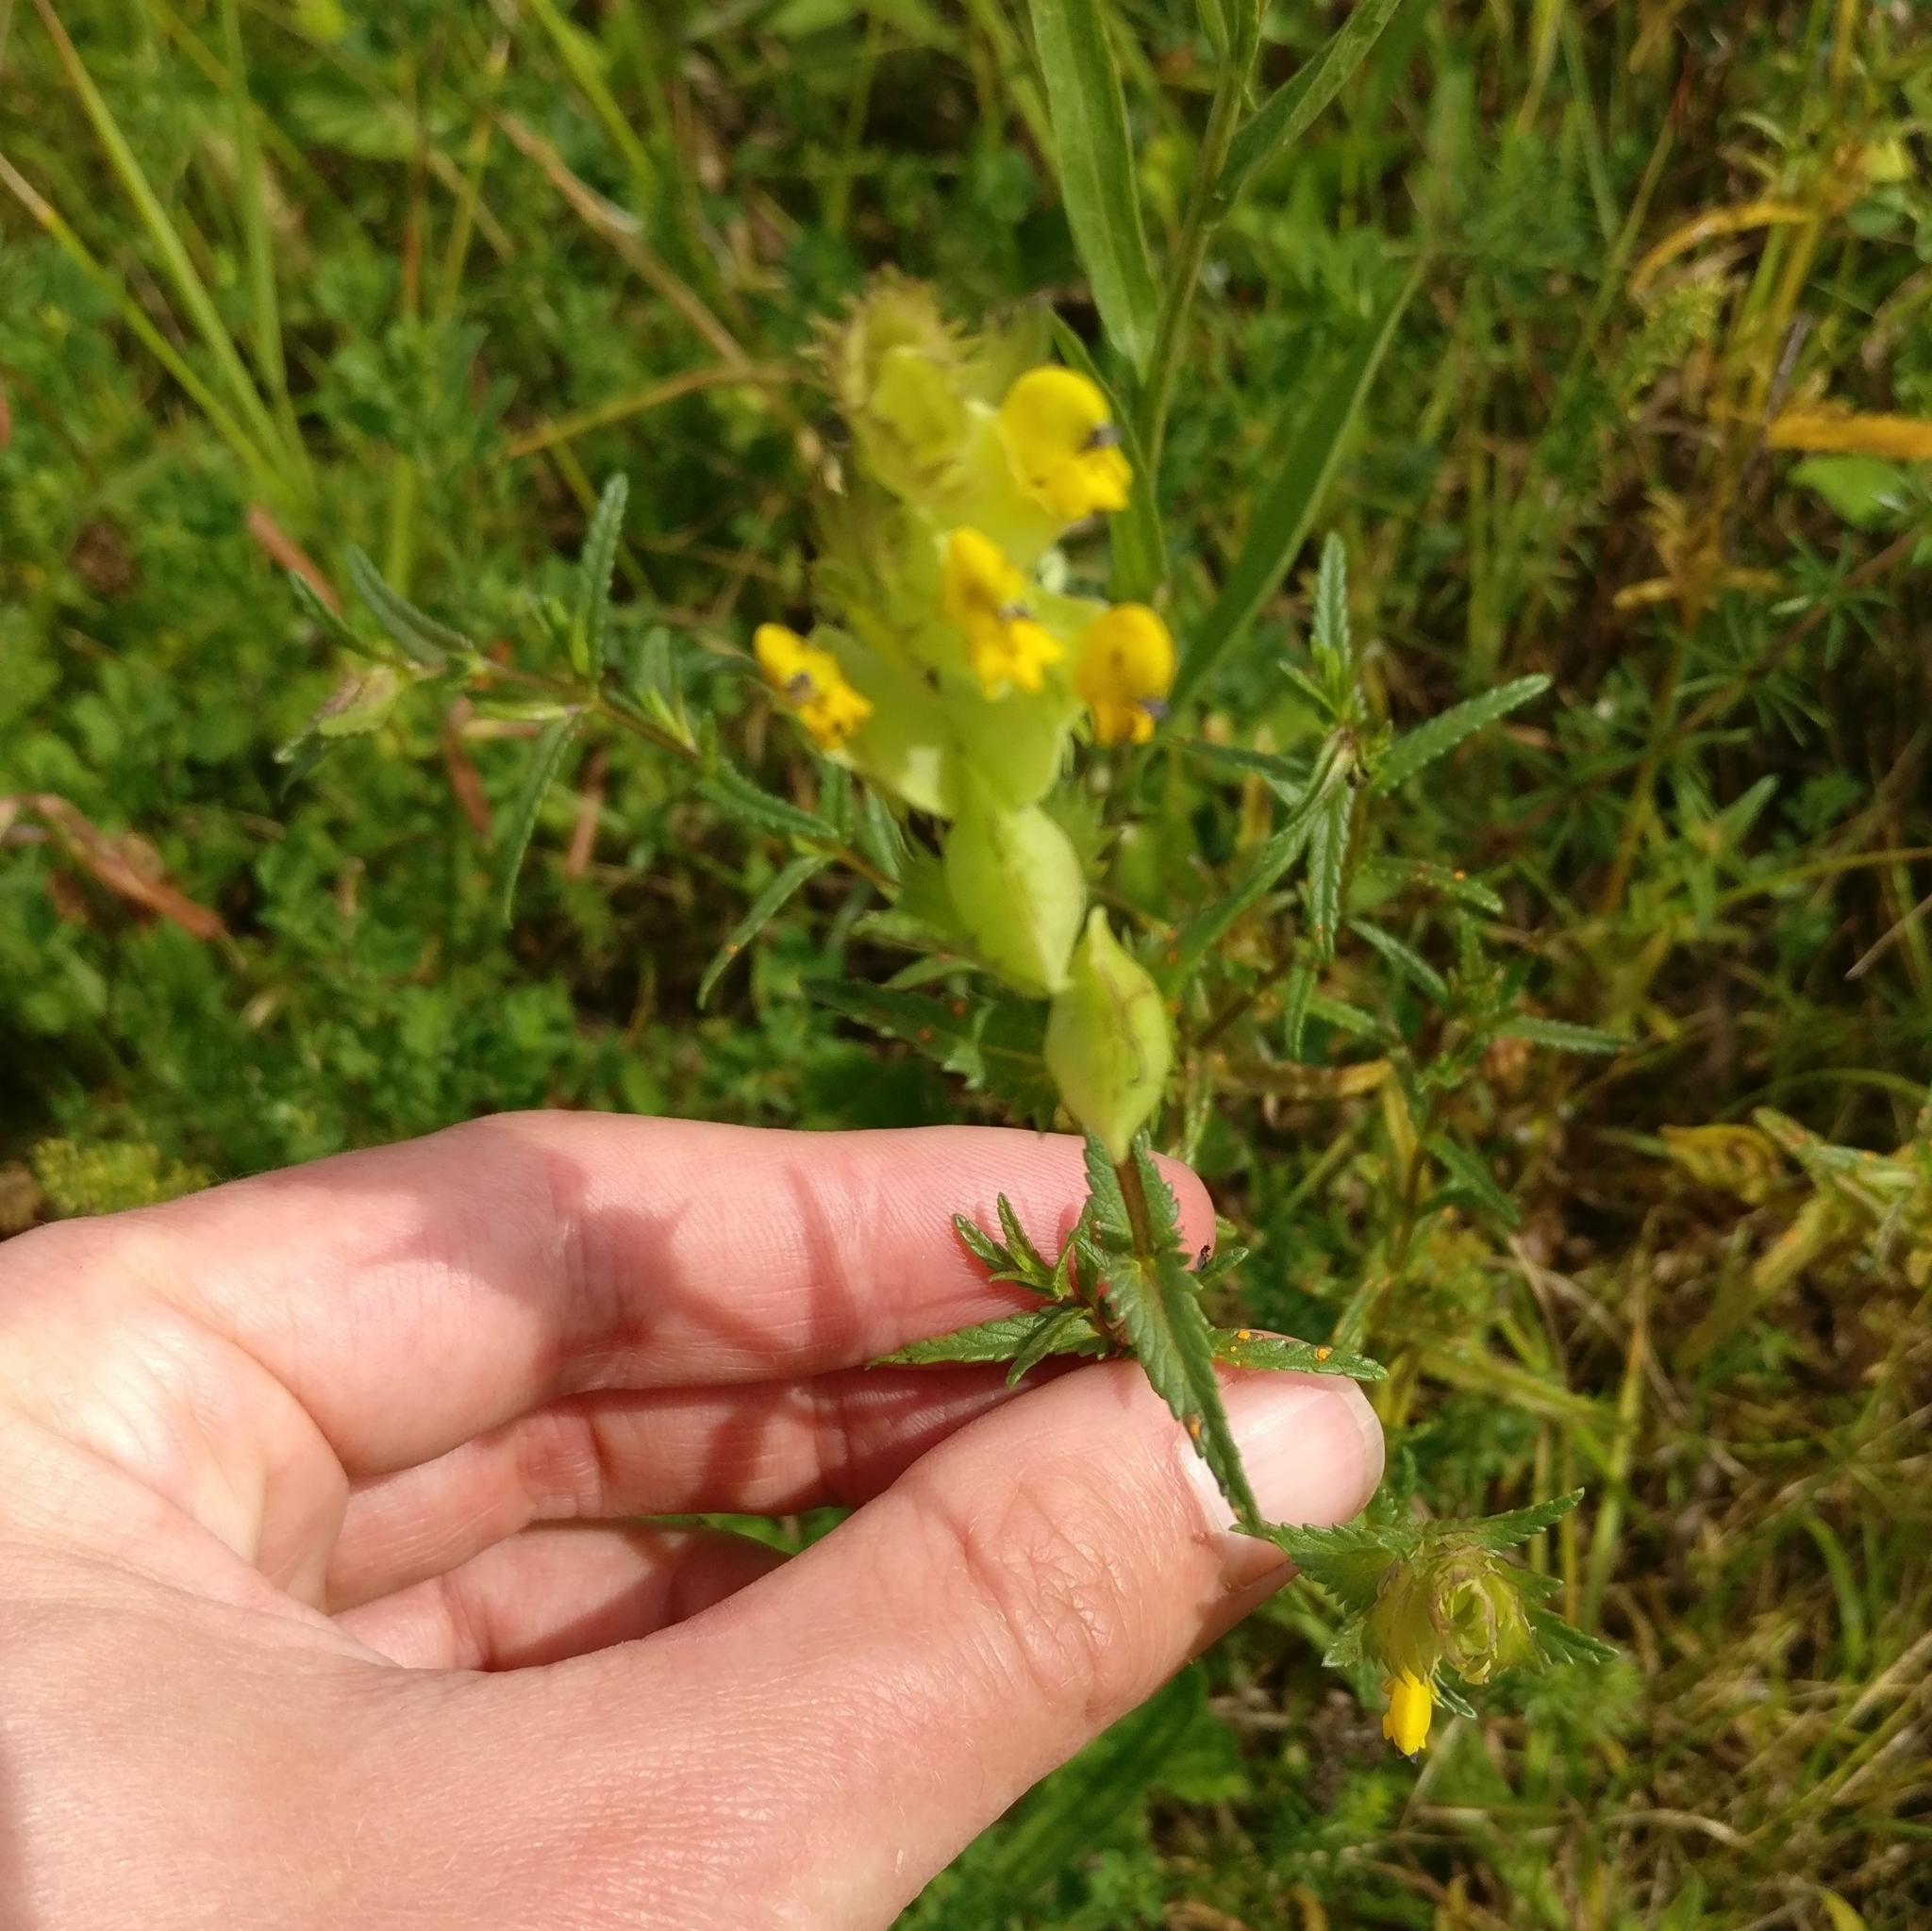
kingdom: Plantae
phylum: Tracheophyta
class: Magnoliopsida
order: Lamiales
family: Orobanchaceae
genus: Rhinanthus
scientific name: Rhinanthus minor
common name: Yellow-rattle
